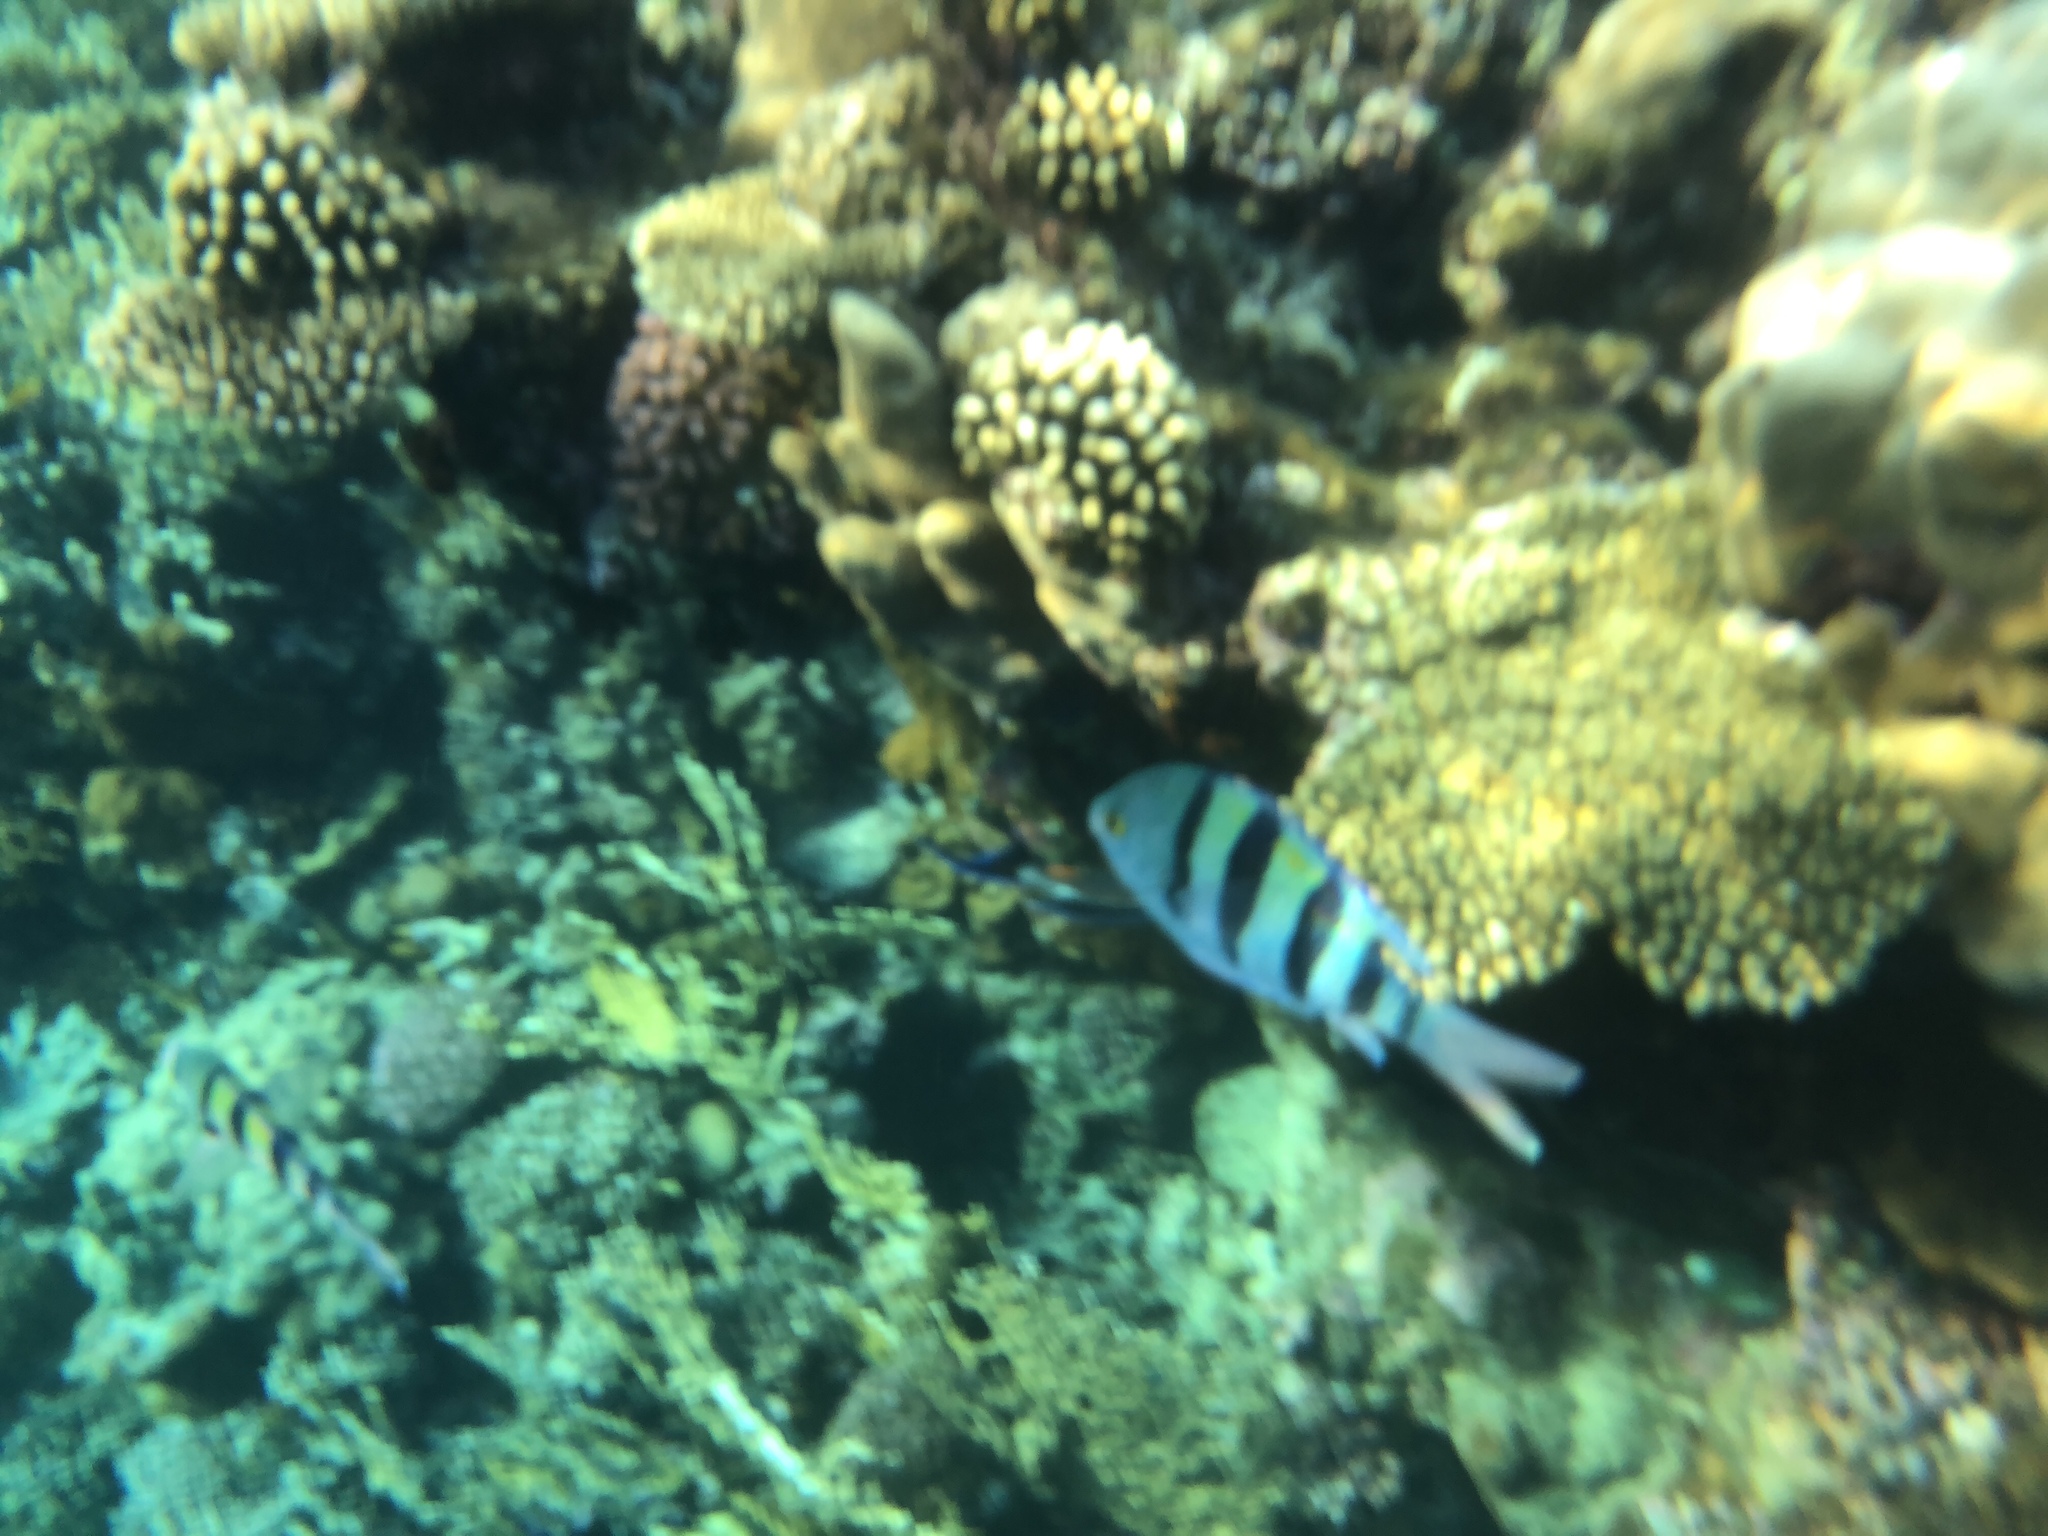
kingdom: Animalia
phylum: Chordata
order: Perciformes
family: Pomacentridae
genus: Abudefduf
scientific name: Abudefduf vaigiensis
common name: Indo-pacific sergeant
